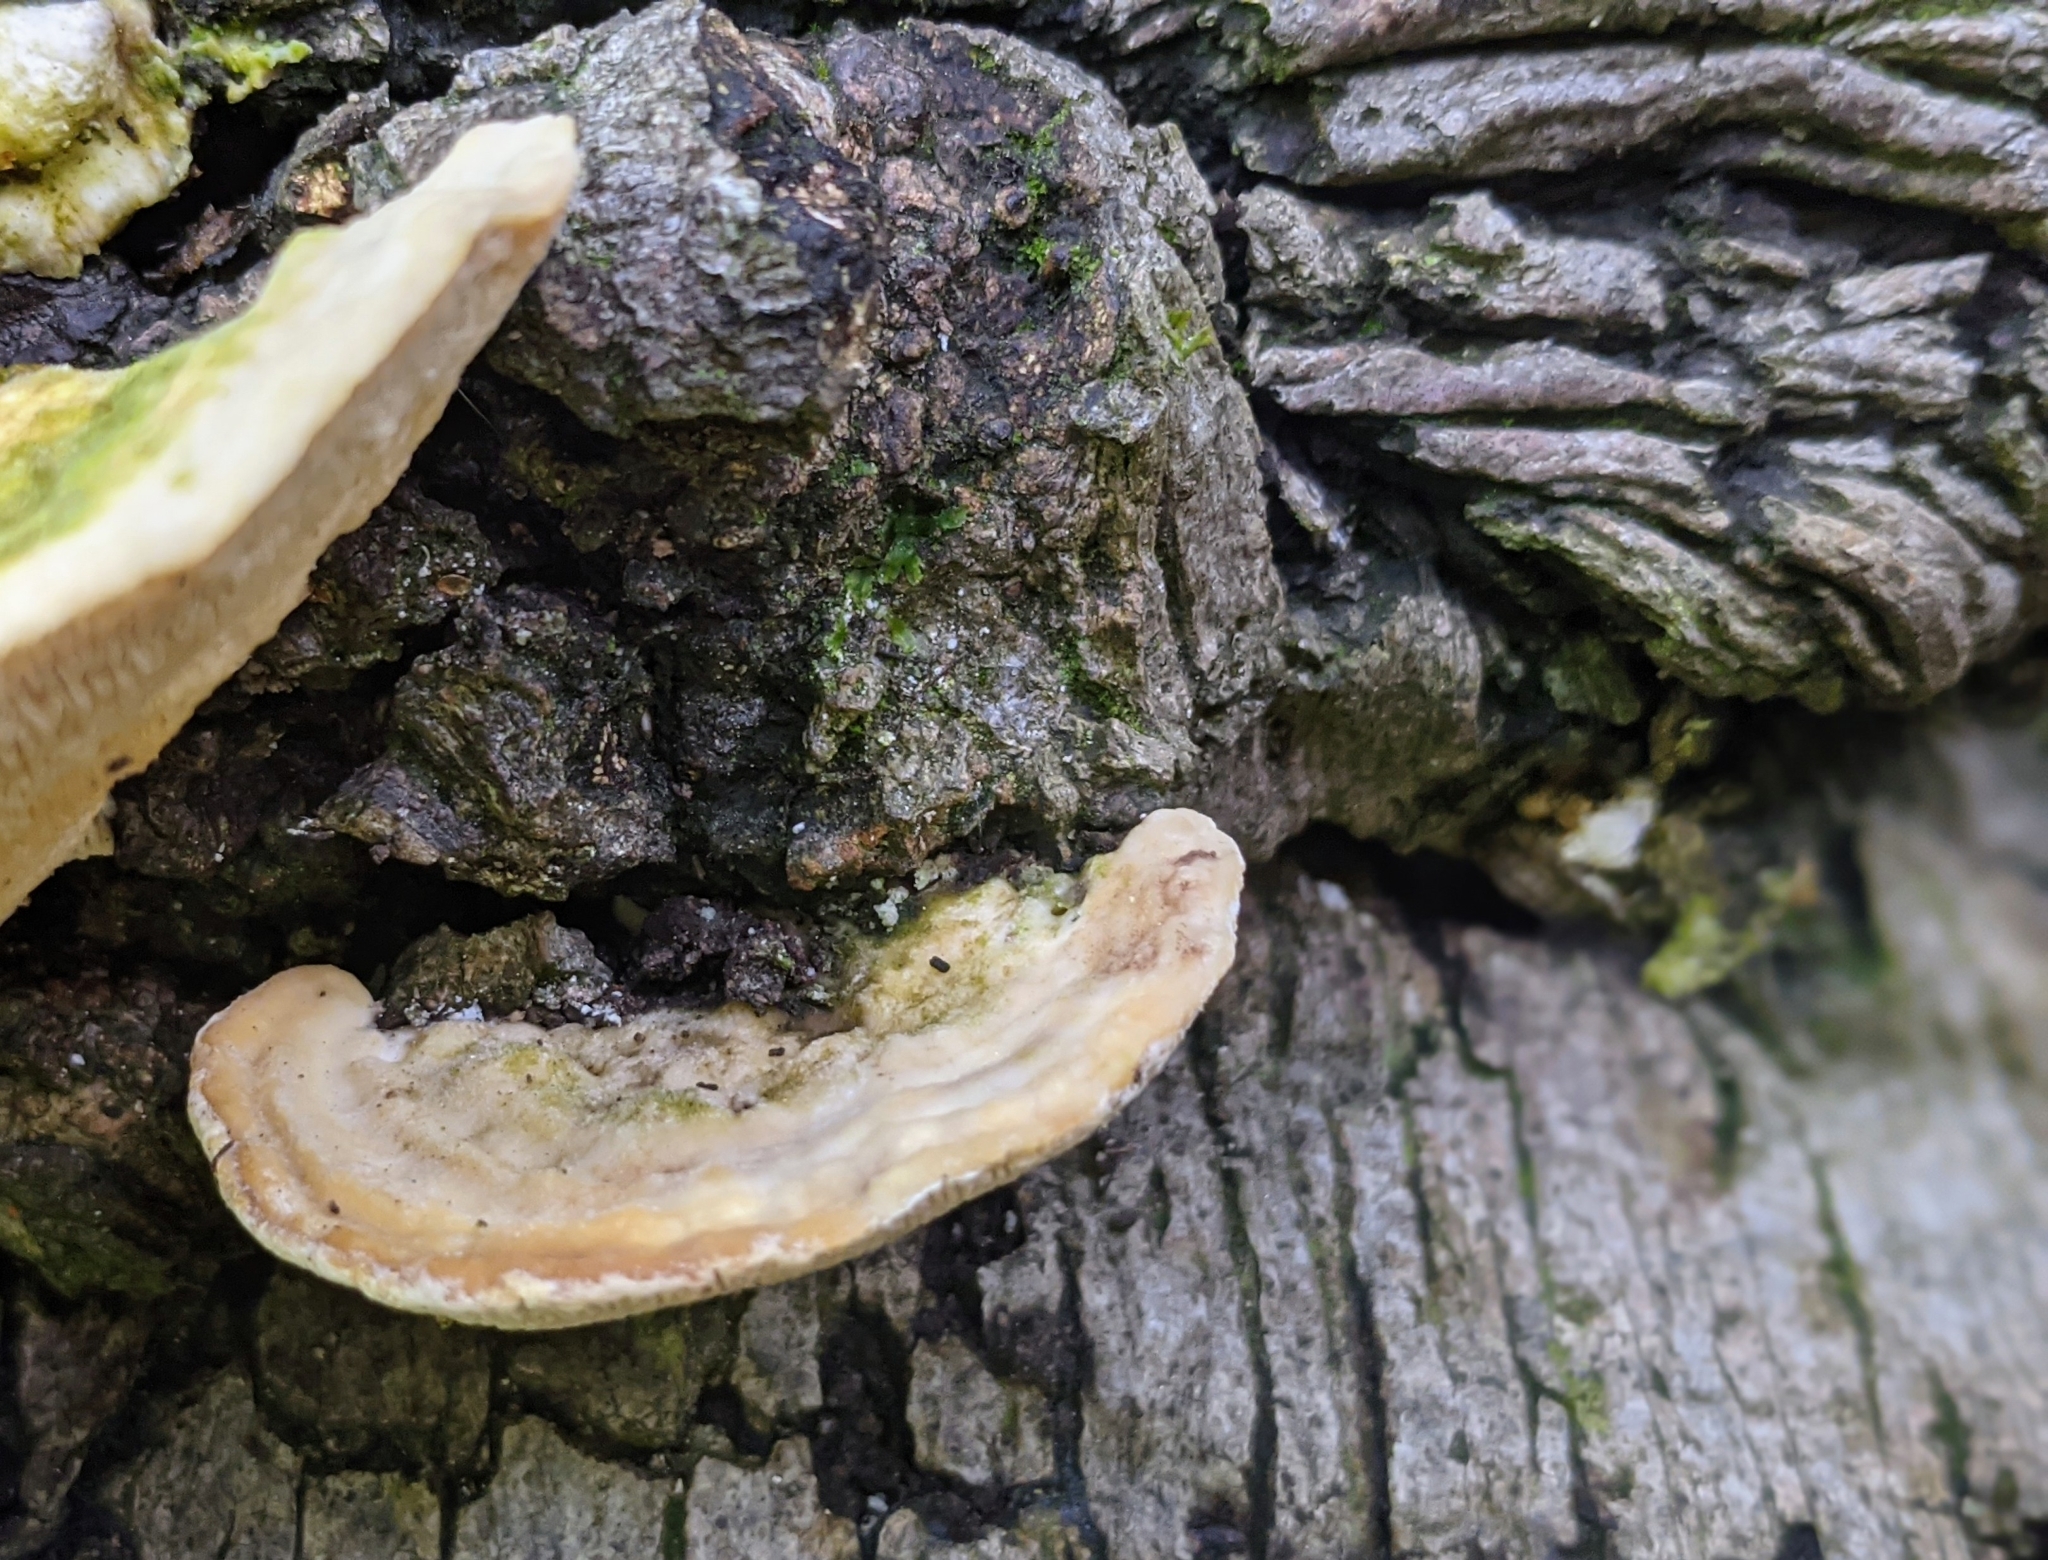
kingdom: Fungi
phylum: Basidiomycota
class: Agaricomycetes
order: Polyporales
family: Polyporaceae
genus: Trametes
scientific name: Trametes gibbosa
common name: Lumpy bracket
